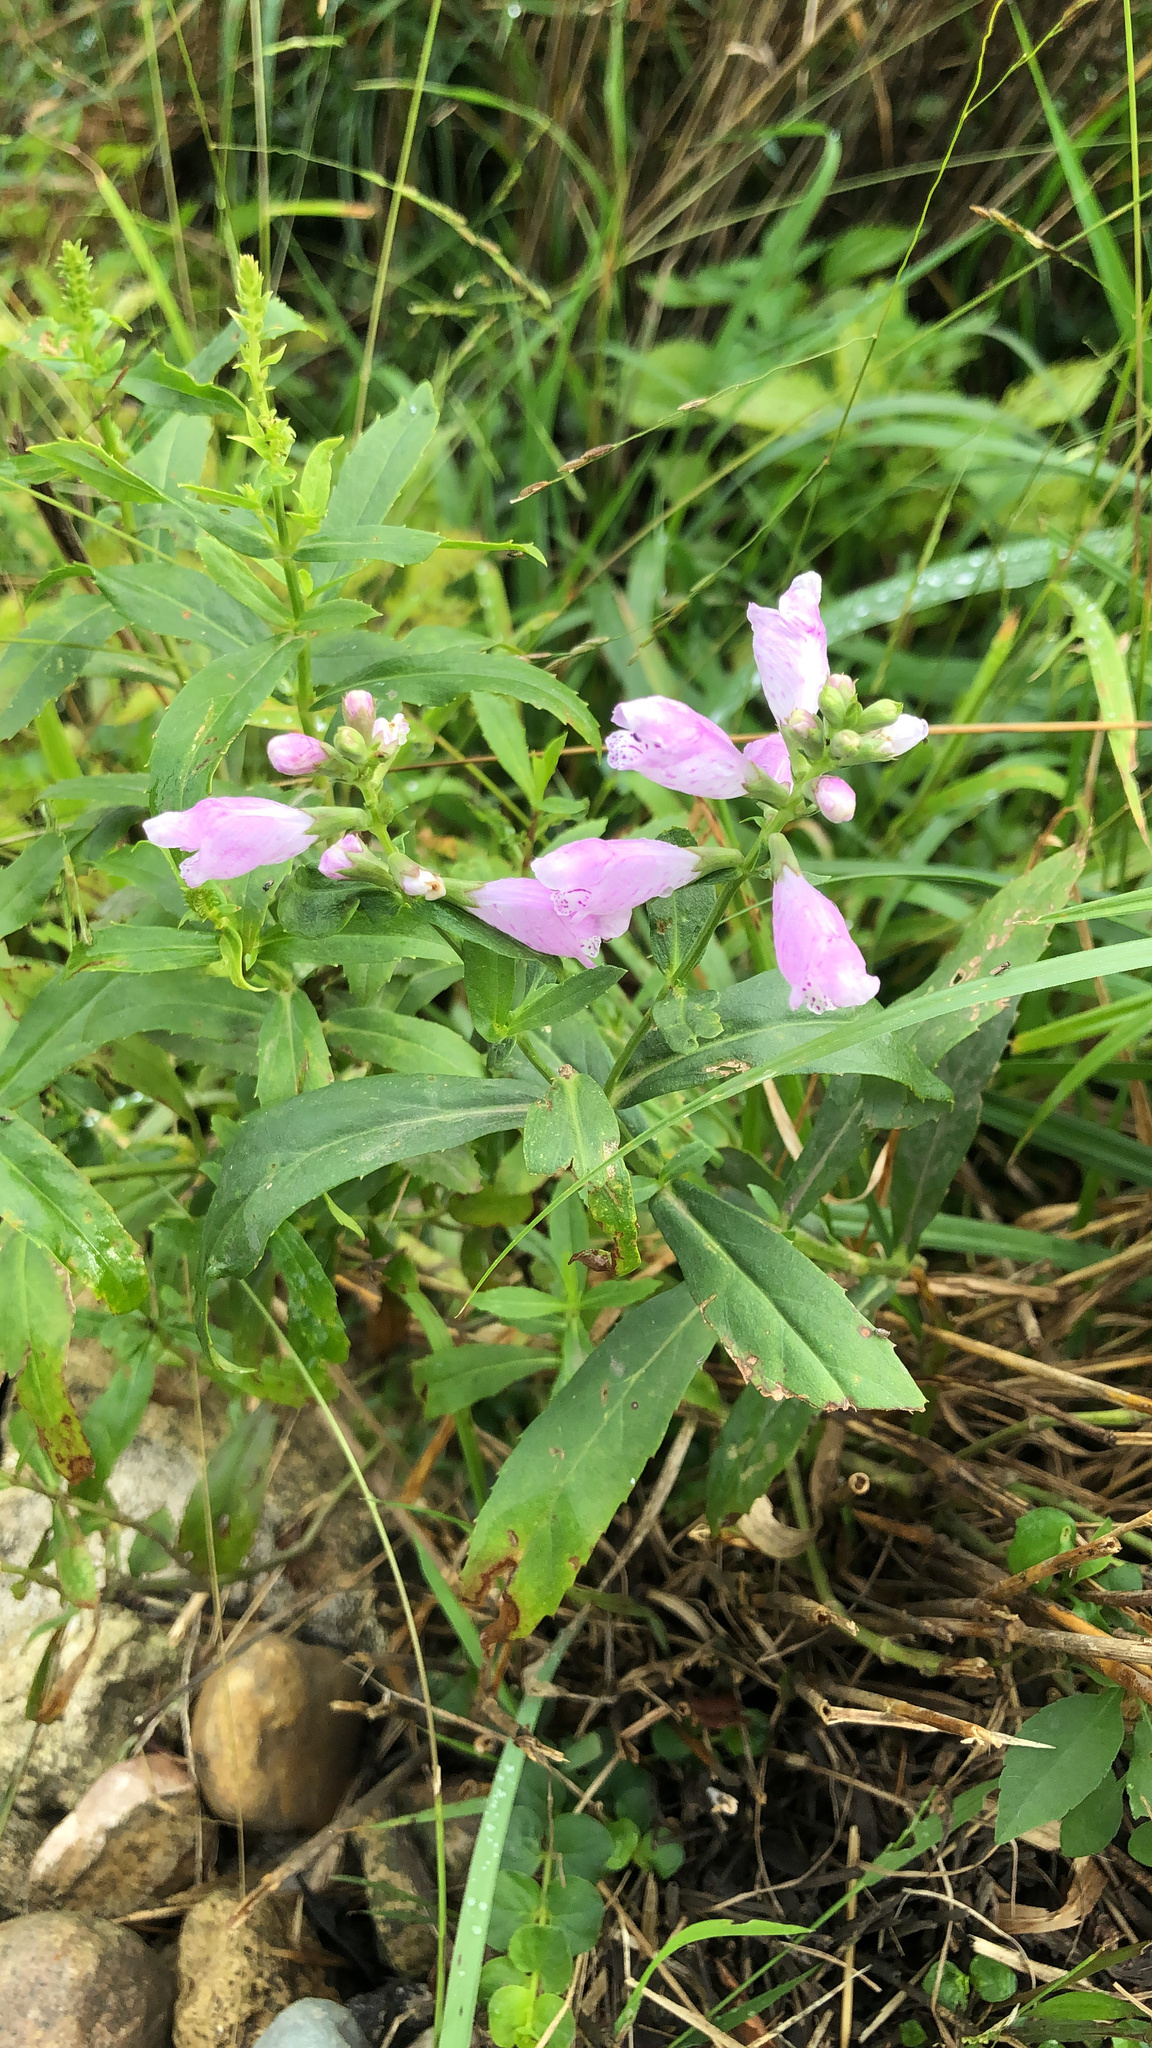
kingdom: Plantae
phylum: Tracheophyta
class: Magnoliopsida
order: Lamiales
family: Lamiaceae
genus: Physostegia
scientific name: Physostegia virginiana
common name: Obedient-plant
